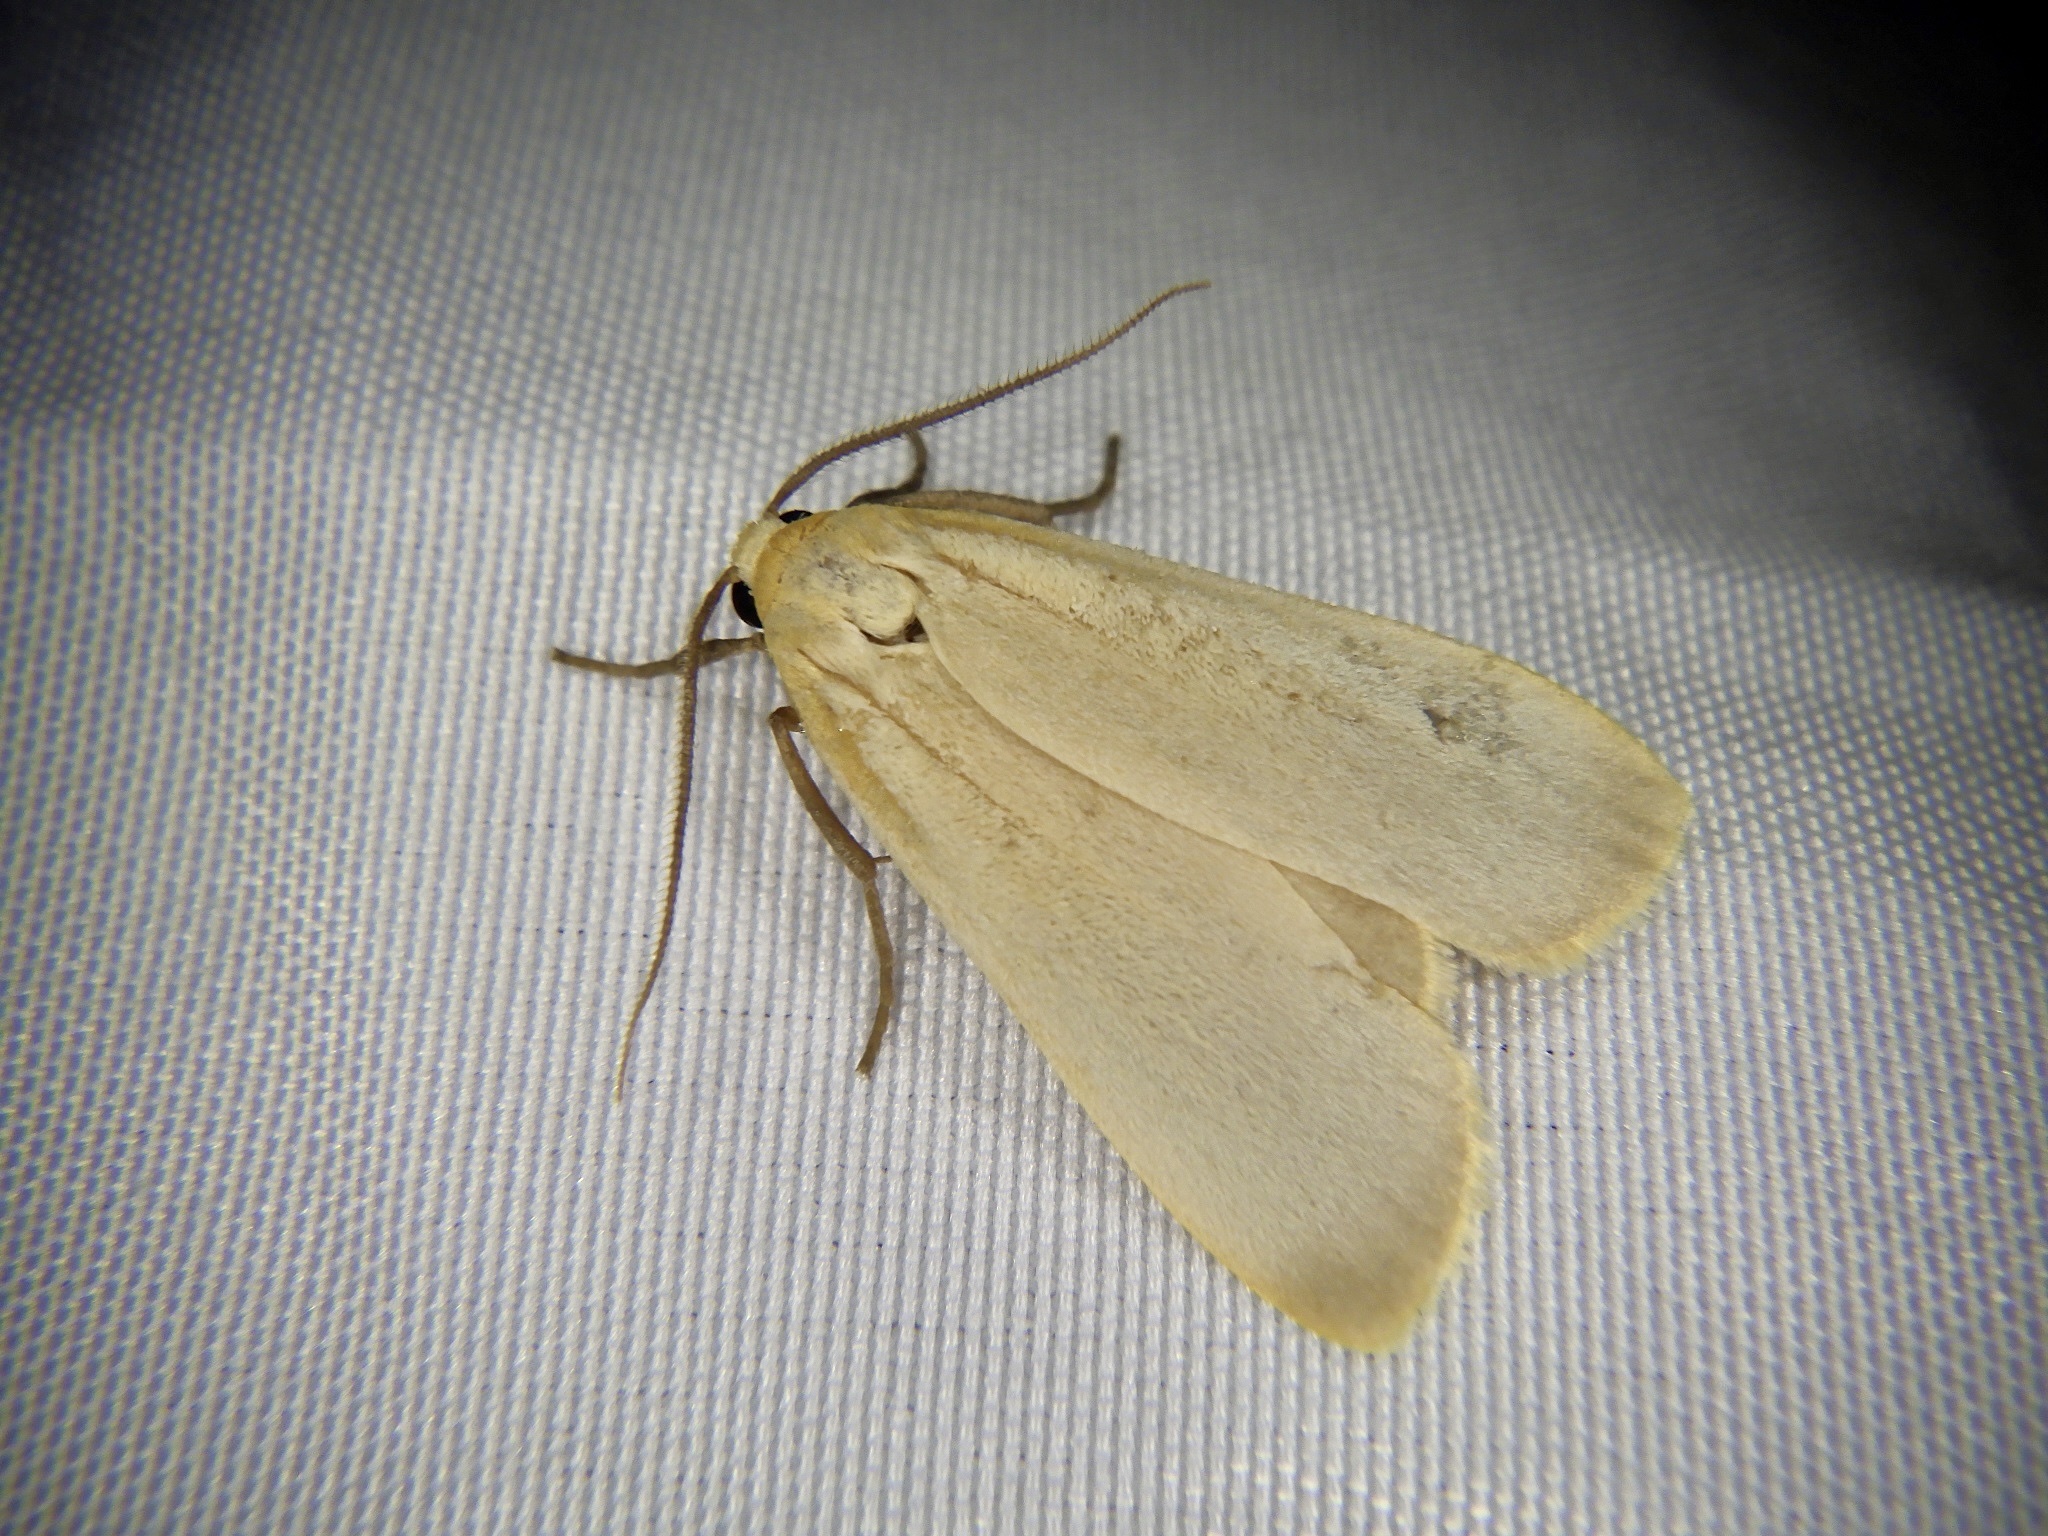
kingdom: Animalia
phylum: Arthropoda
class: Insecta
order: Lepidoptera
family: Erebidae
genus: Katha
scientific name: Katha depressa
